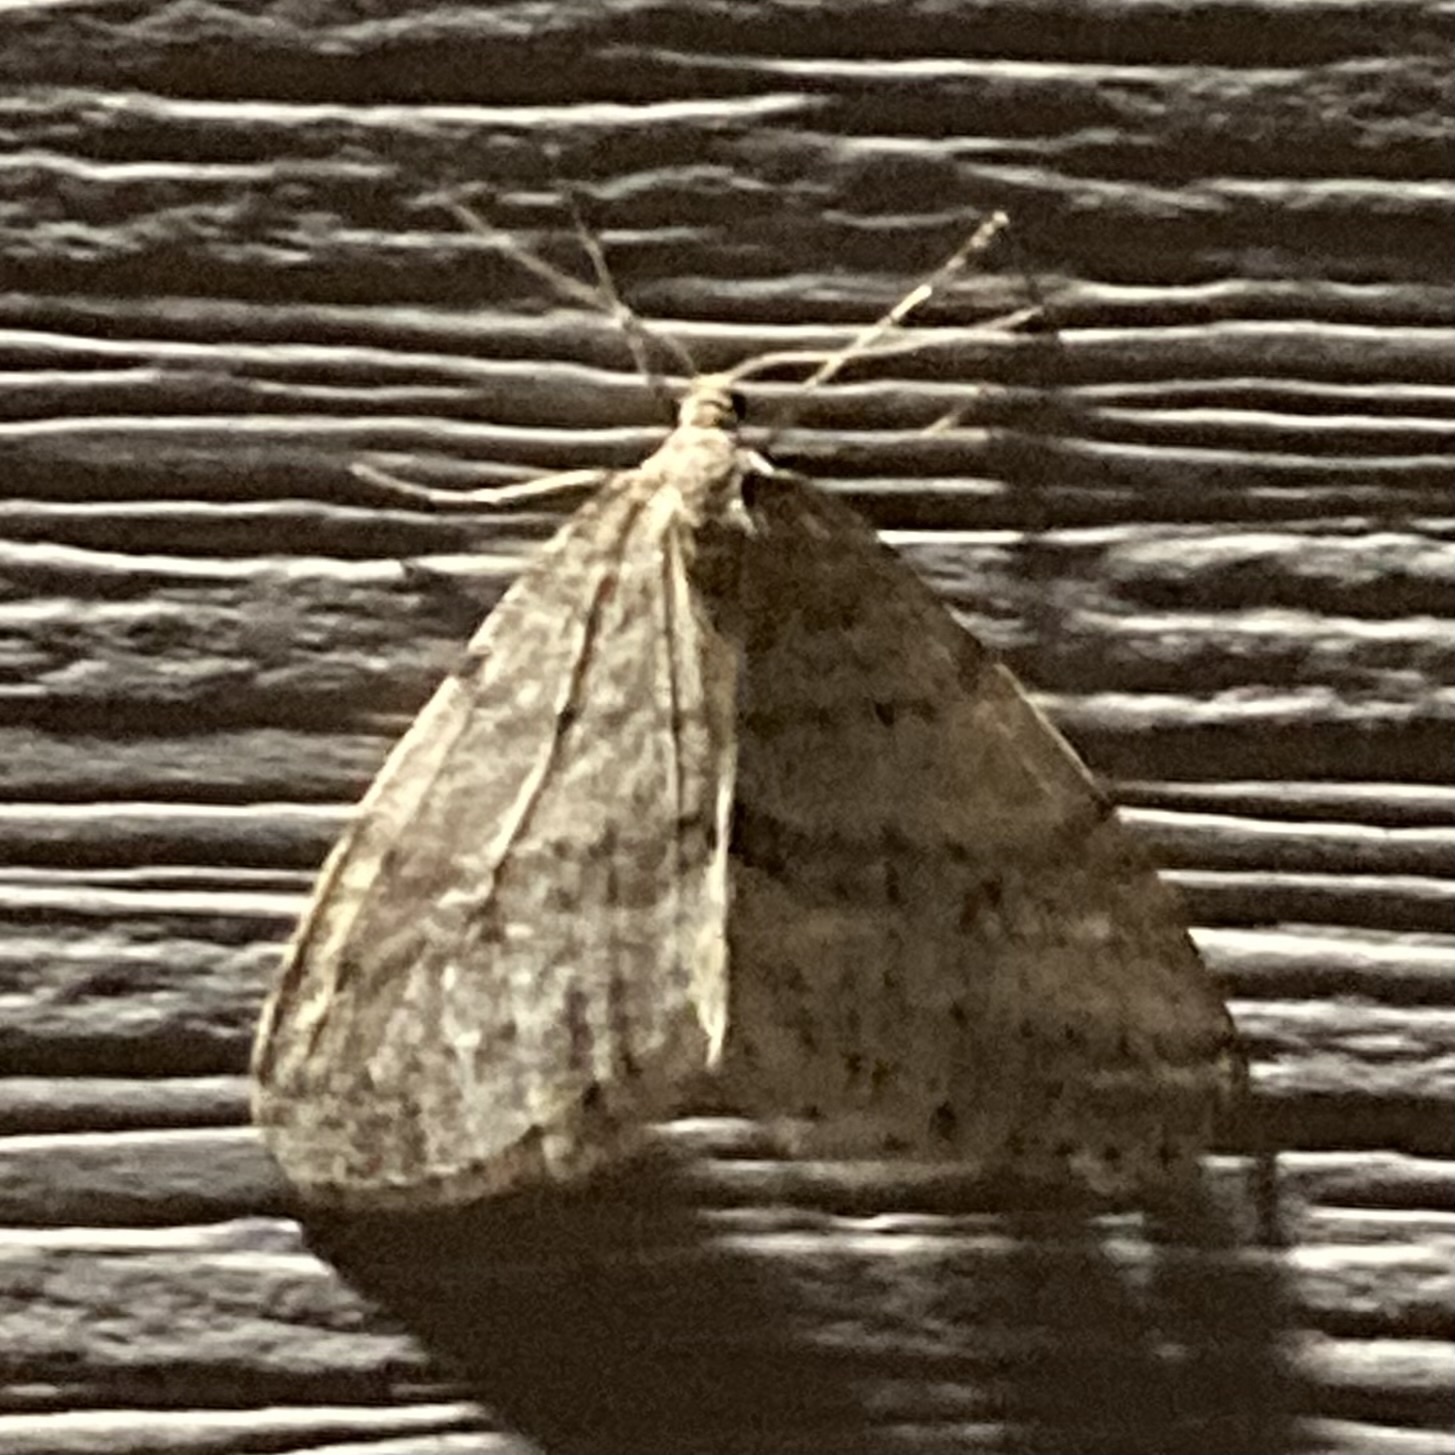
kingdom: Animalia
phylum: Arthropoda
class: Insecta
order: Lepidoptera
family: Geometridae
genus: Operophtera
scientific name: Operophtera bruceata
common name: Bruce spanworm
